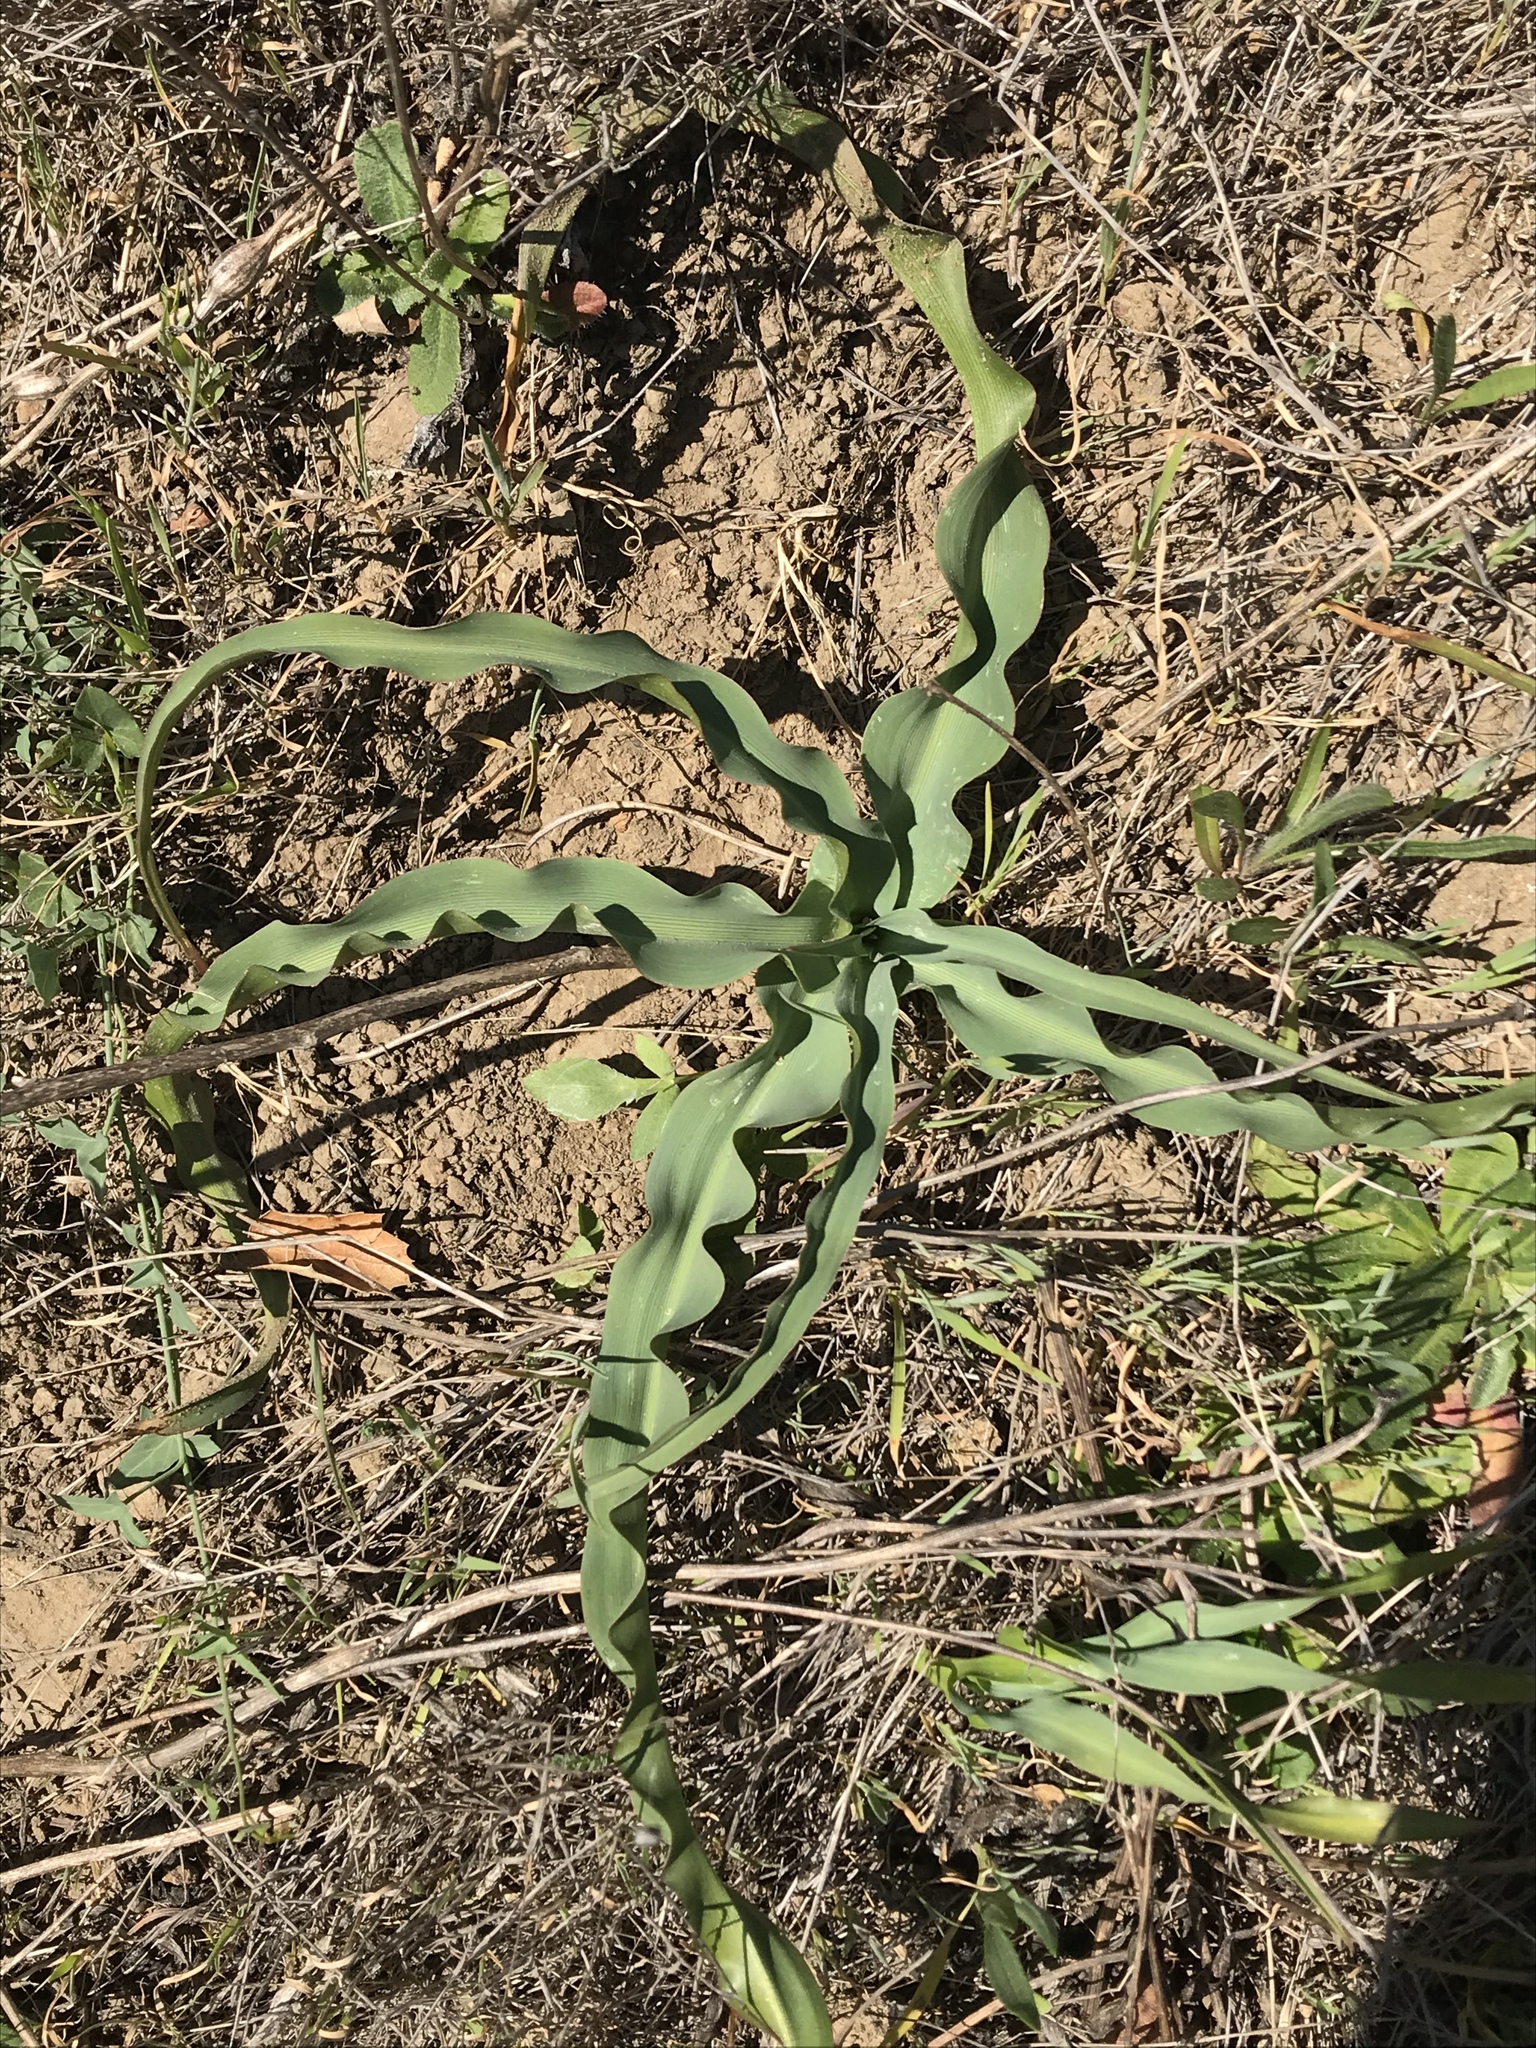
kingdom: Plantae
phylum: Tracheophyta
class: Liliopsida
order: Asparagales
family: Asparagaceae
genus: Chlorogalum
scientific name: Chlorogalum pomeridianum
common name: Amole
